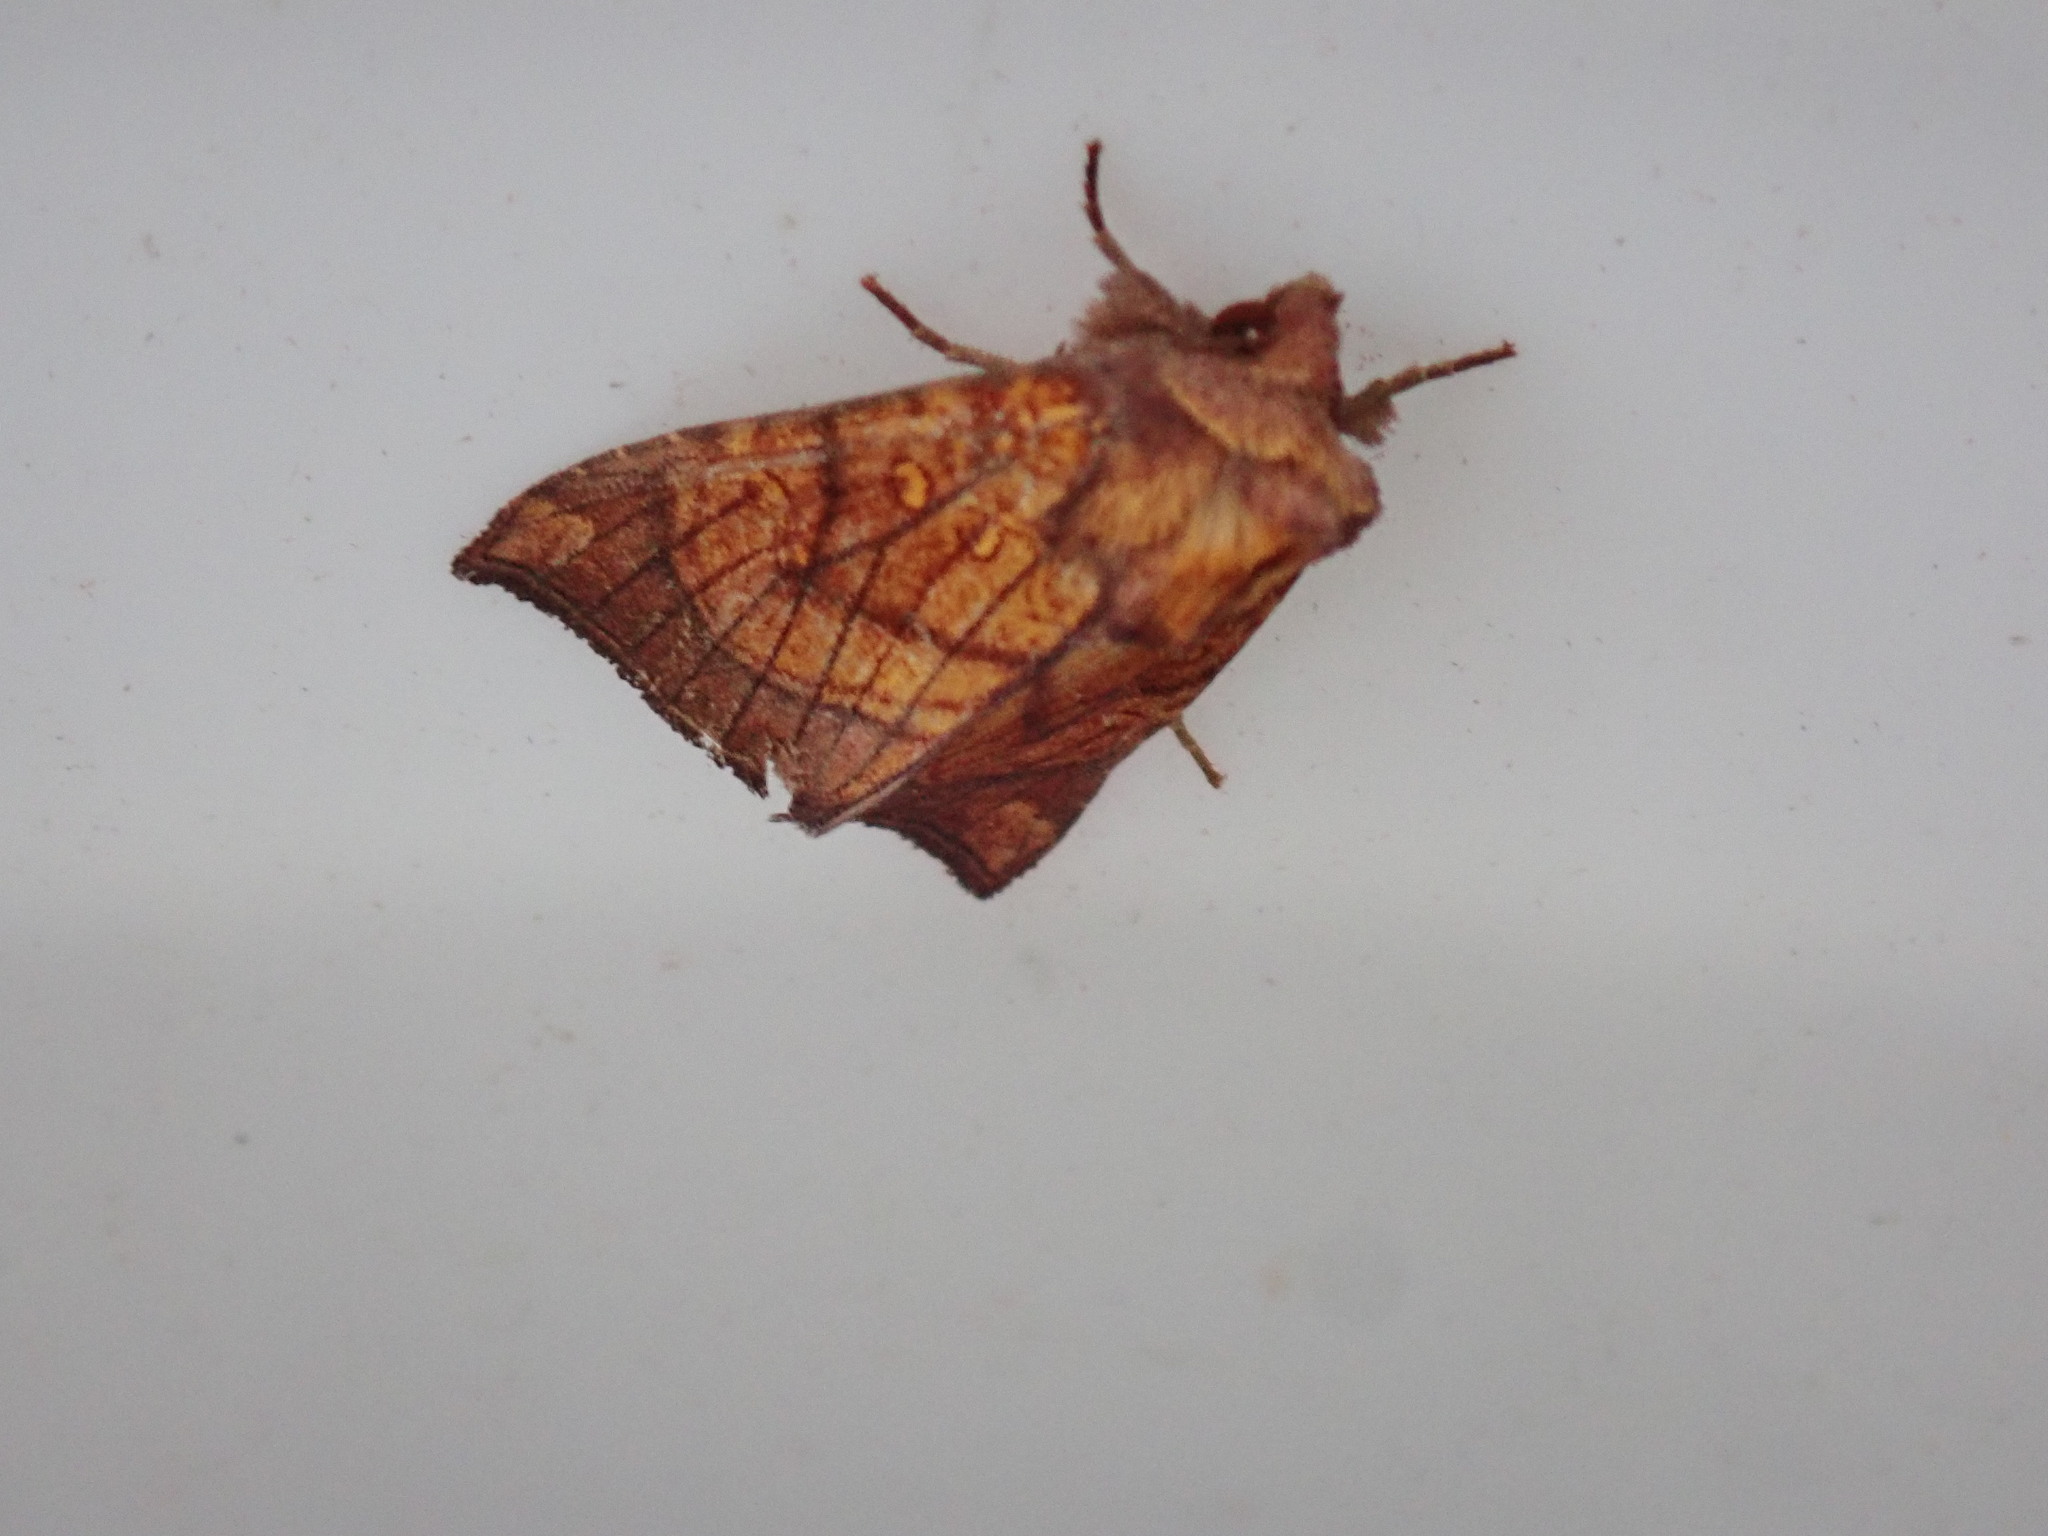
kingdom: Animalia
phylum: Arthropoda
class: Insecta
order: Lepidoptera
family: Noctuidae
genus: Papaipema
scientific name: Papaipema inquaesita
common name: Sensitive fern borer moth
